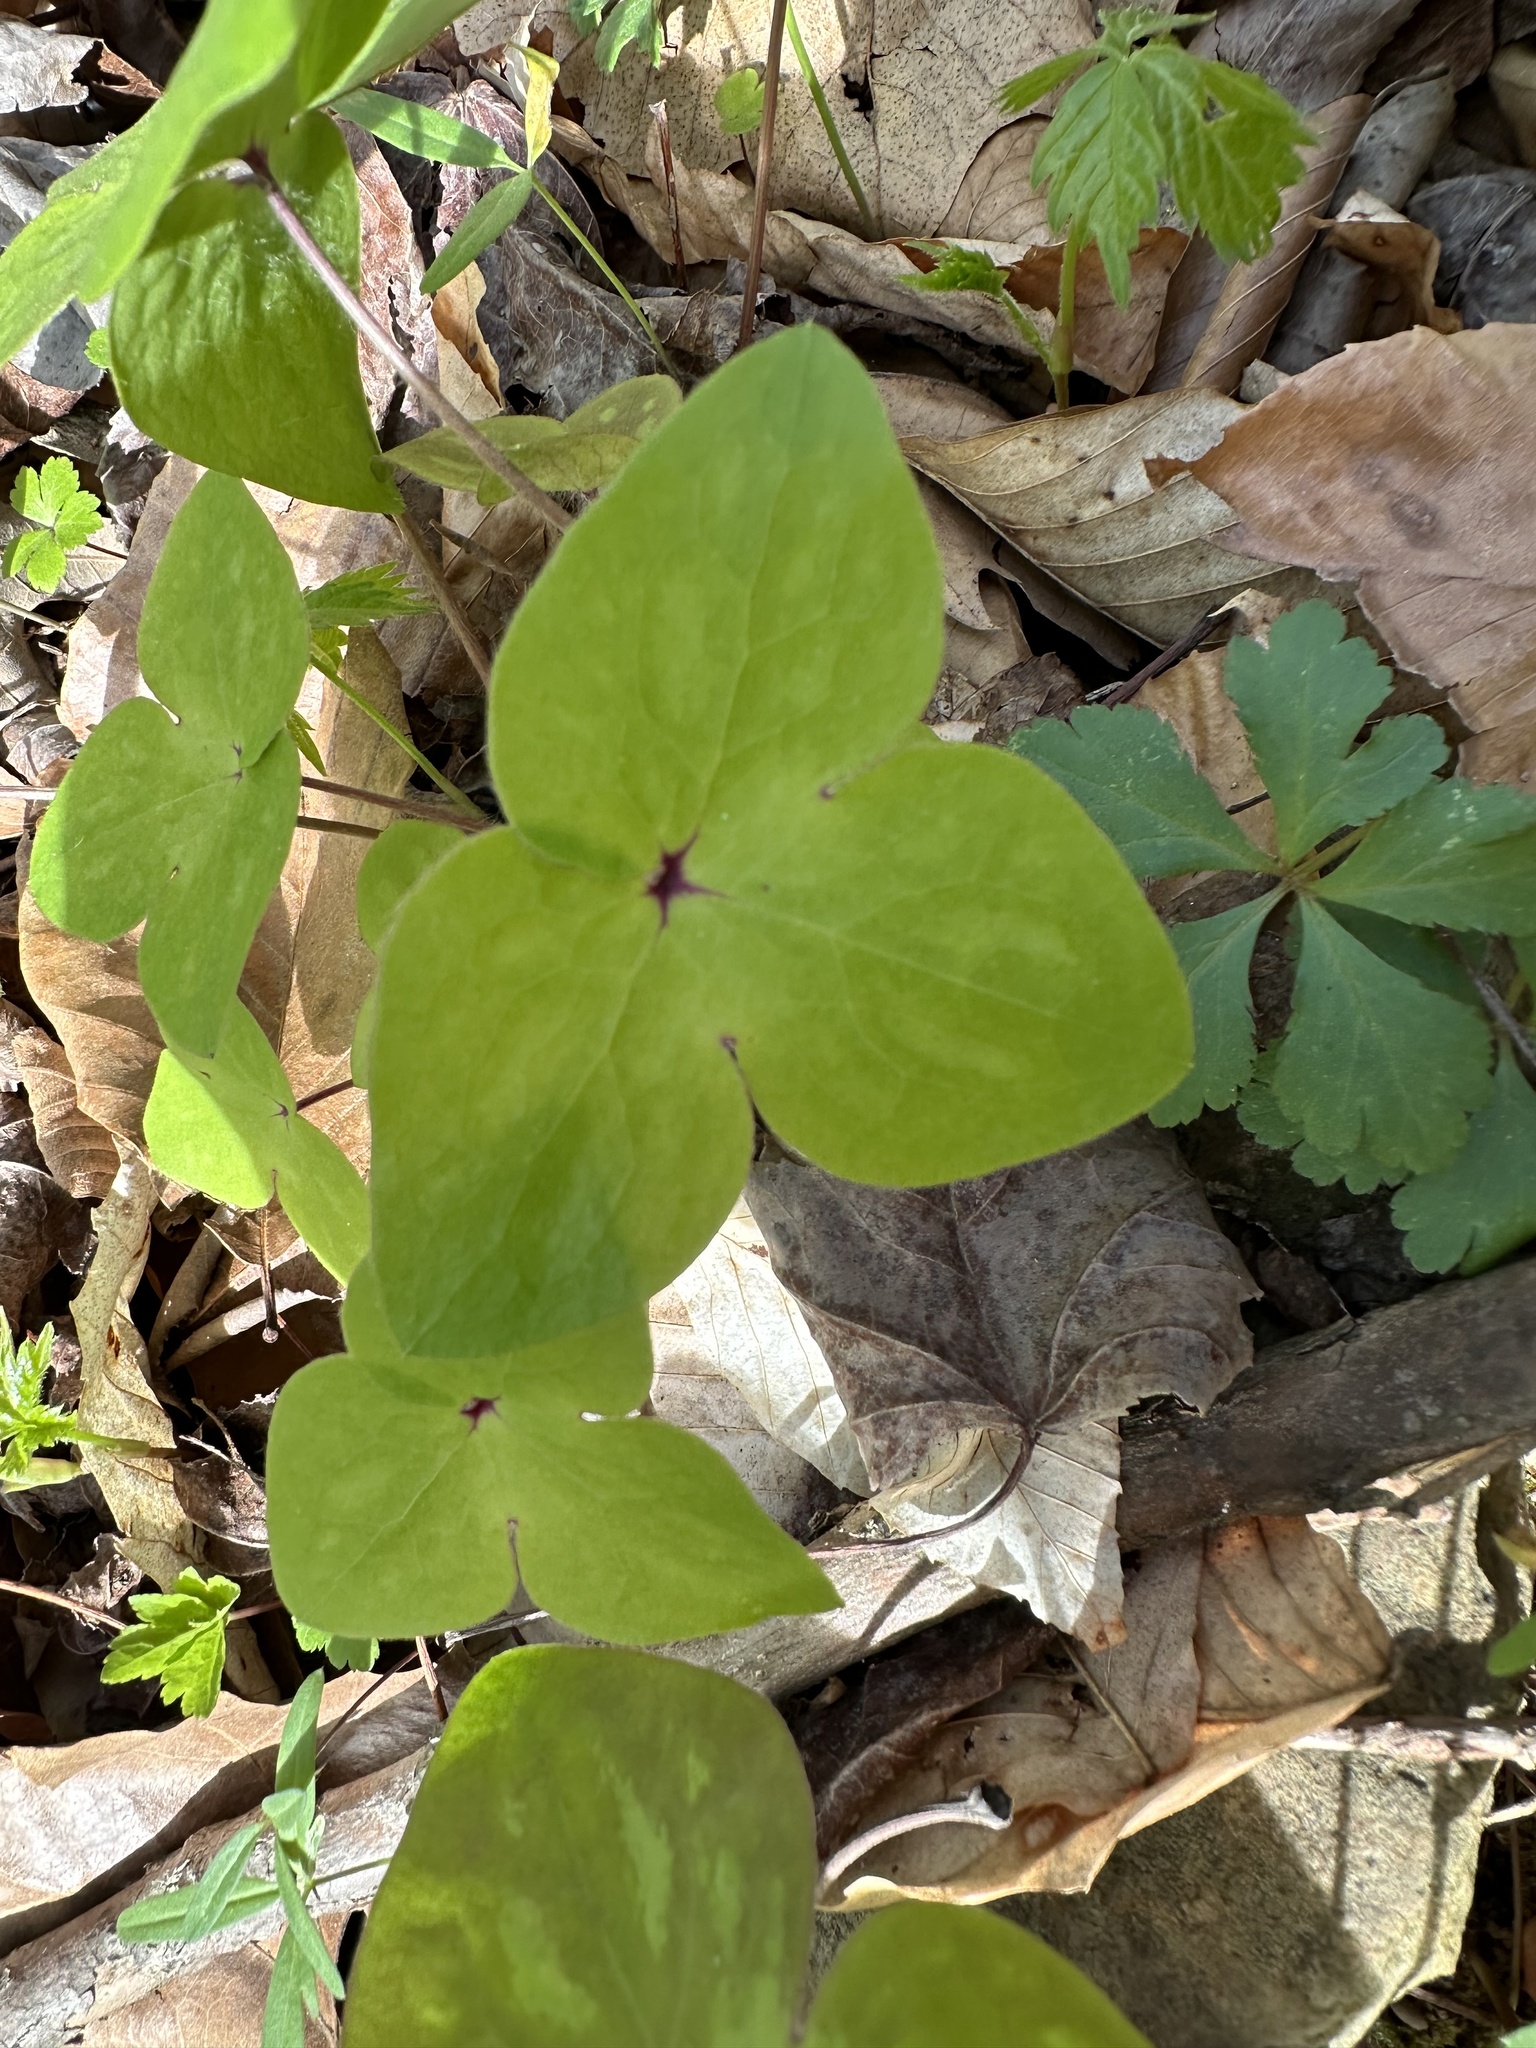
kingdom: Plantae
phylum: Tracheophyta
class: Magnoliopsida
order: Ranunculales
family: Ranunculaceae
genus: Hepatica
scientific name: Hepatica acutiloba
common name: Sharp-lobed hepatica
